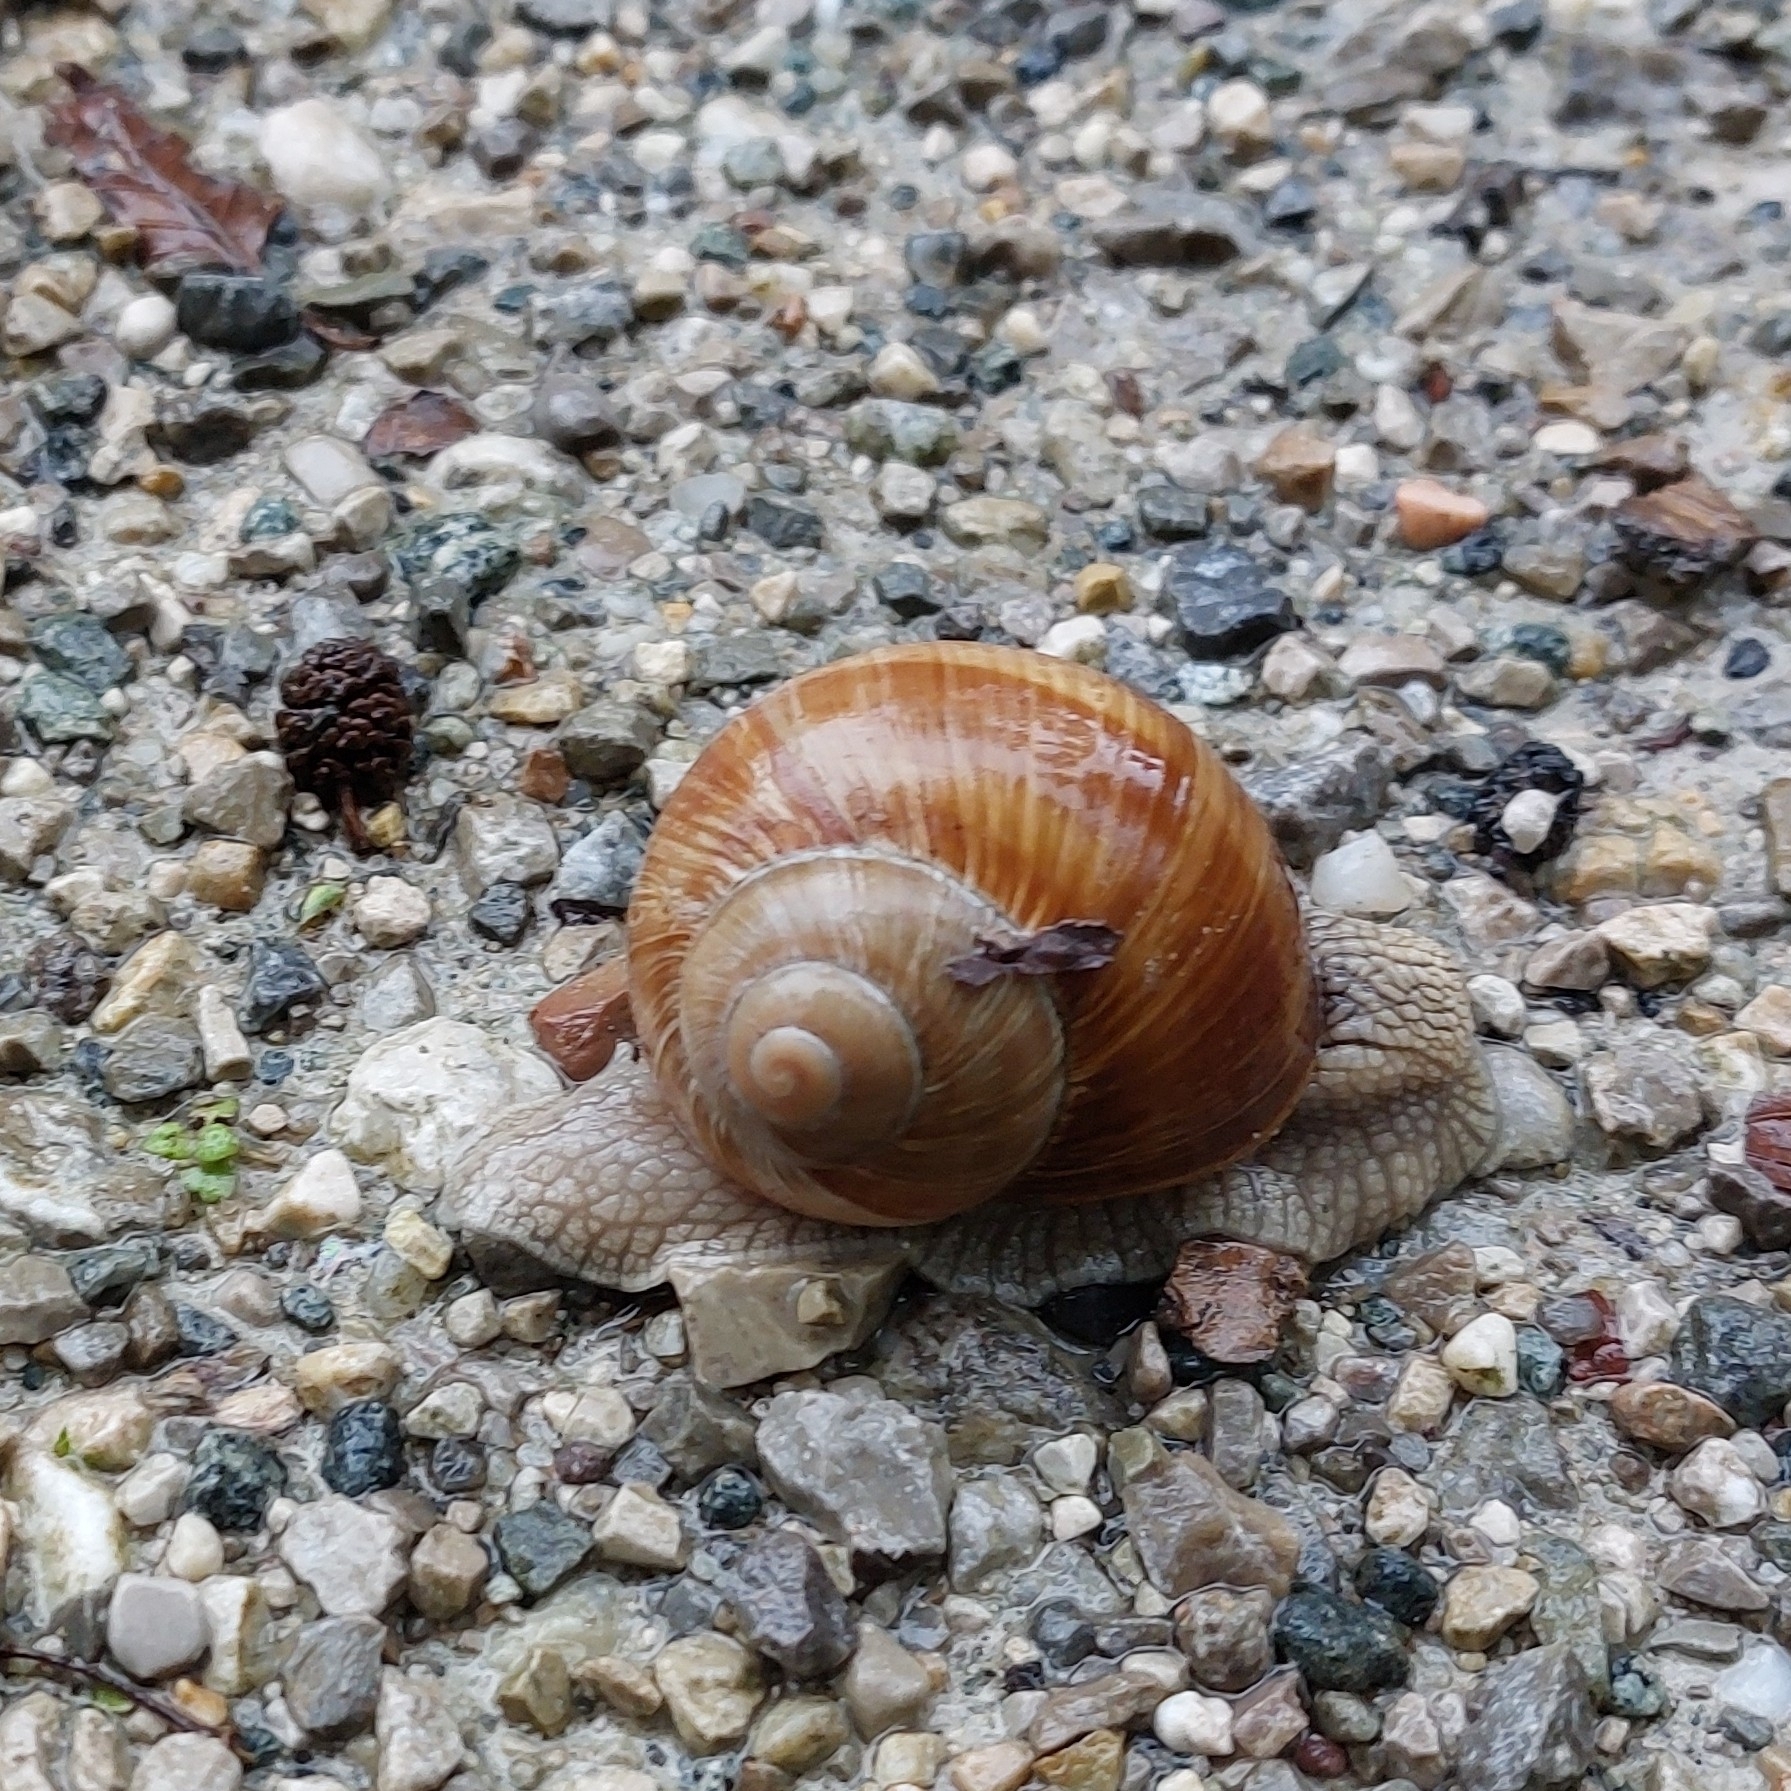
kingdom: Animalia
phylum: Mollusca
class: Gastropoda
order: Stylommatophora
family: Helicidae
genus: Helix
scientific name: Helix pomatia
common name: Roman snail
